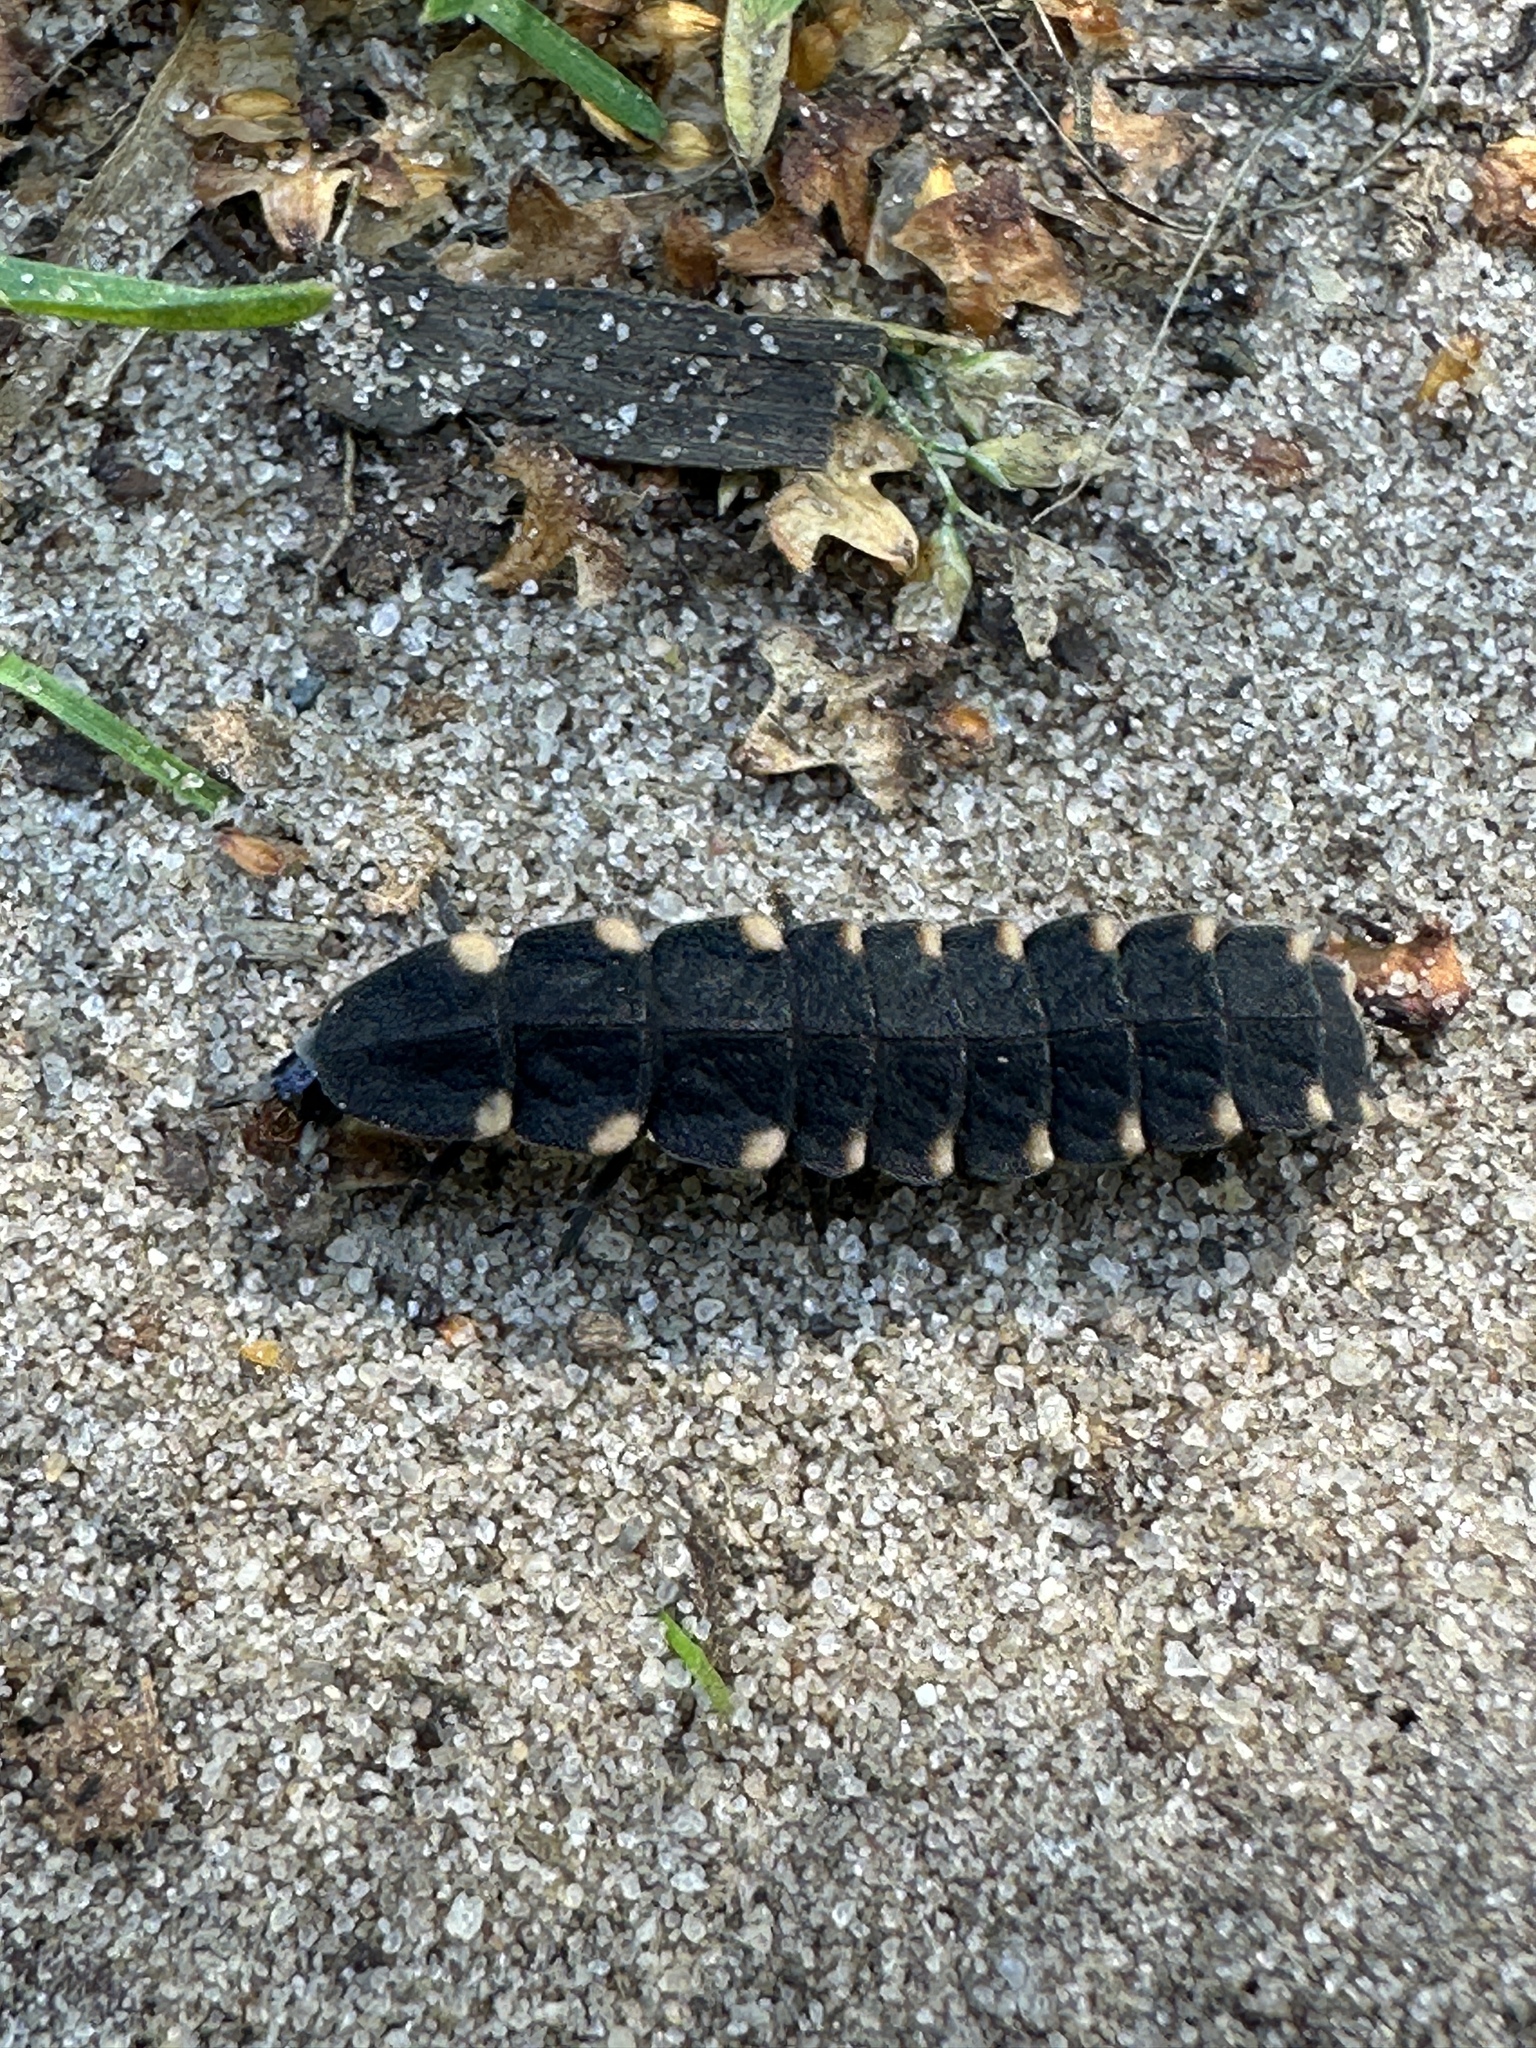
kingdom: Animalia
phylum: Arthropoda
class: Insecta
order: Coleoptera
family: Lampyridae
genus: Lampyris
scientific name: Lampyris noctiluca
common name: Glow-worm
